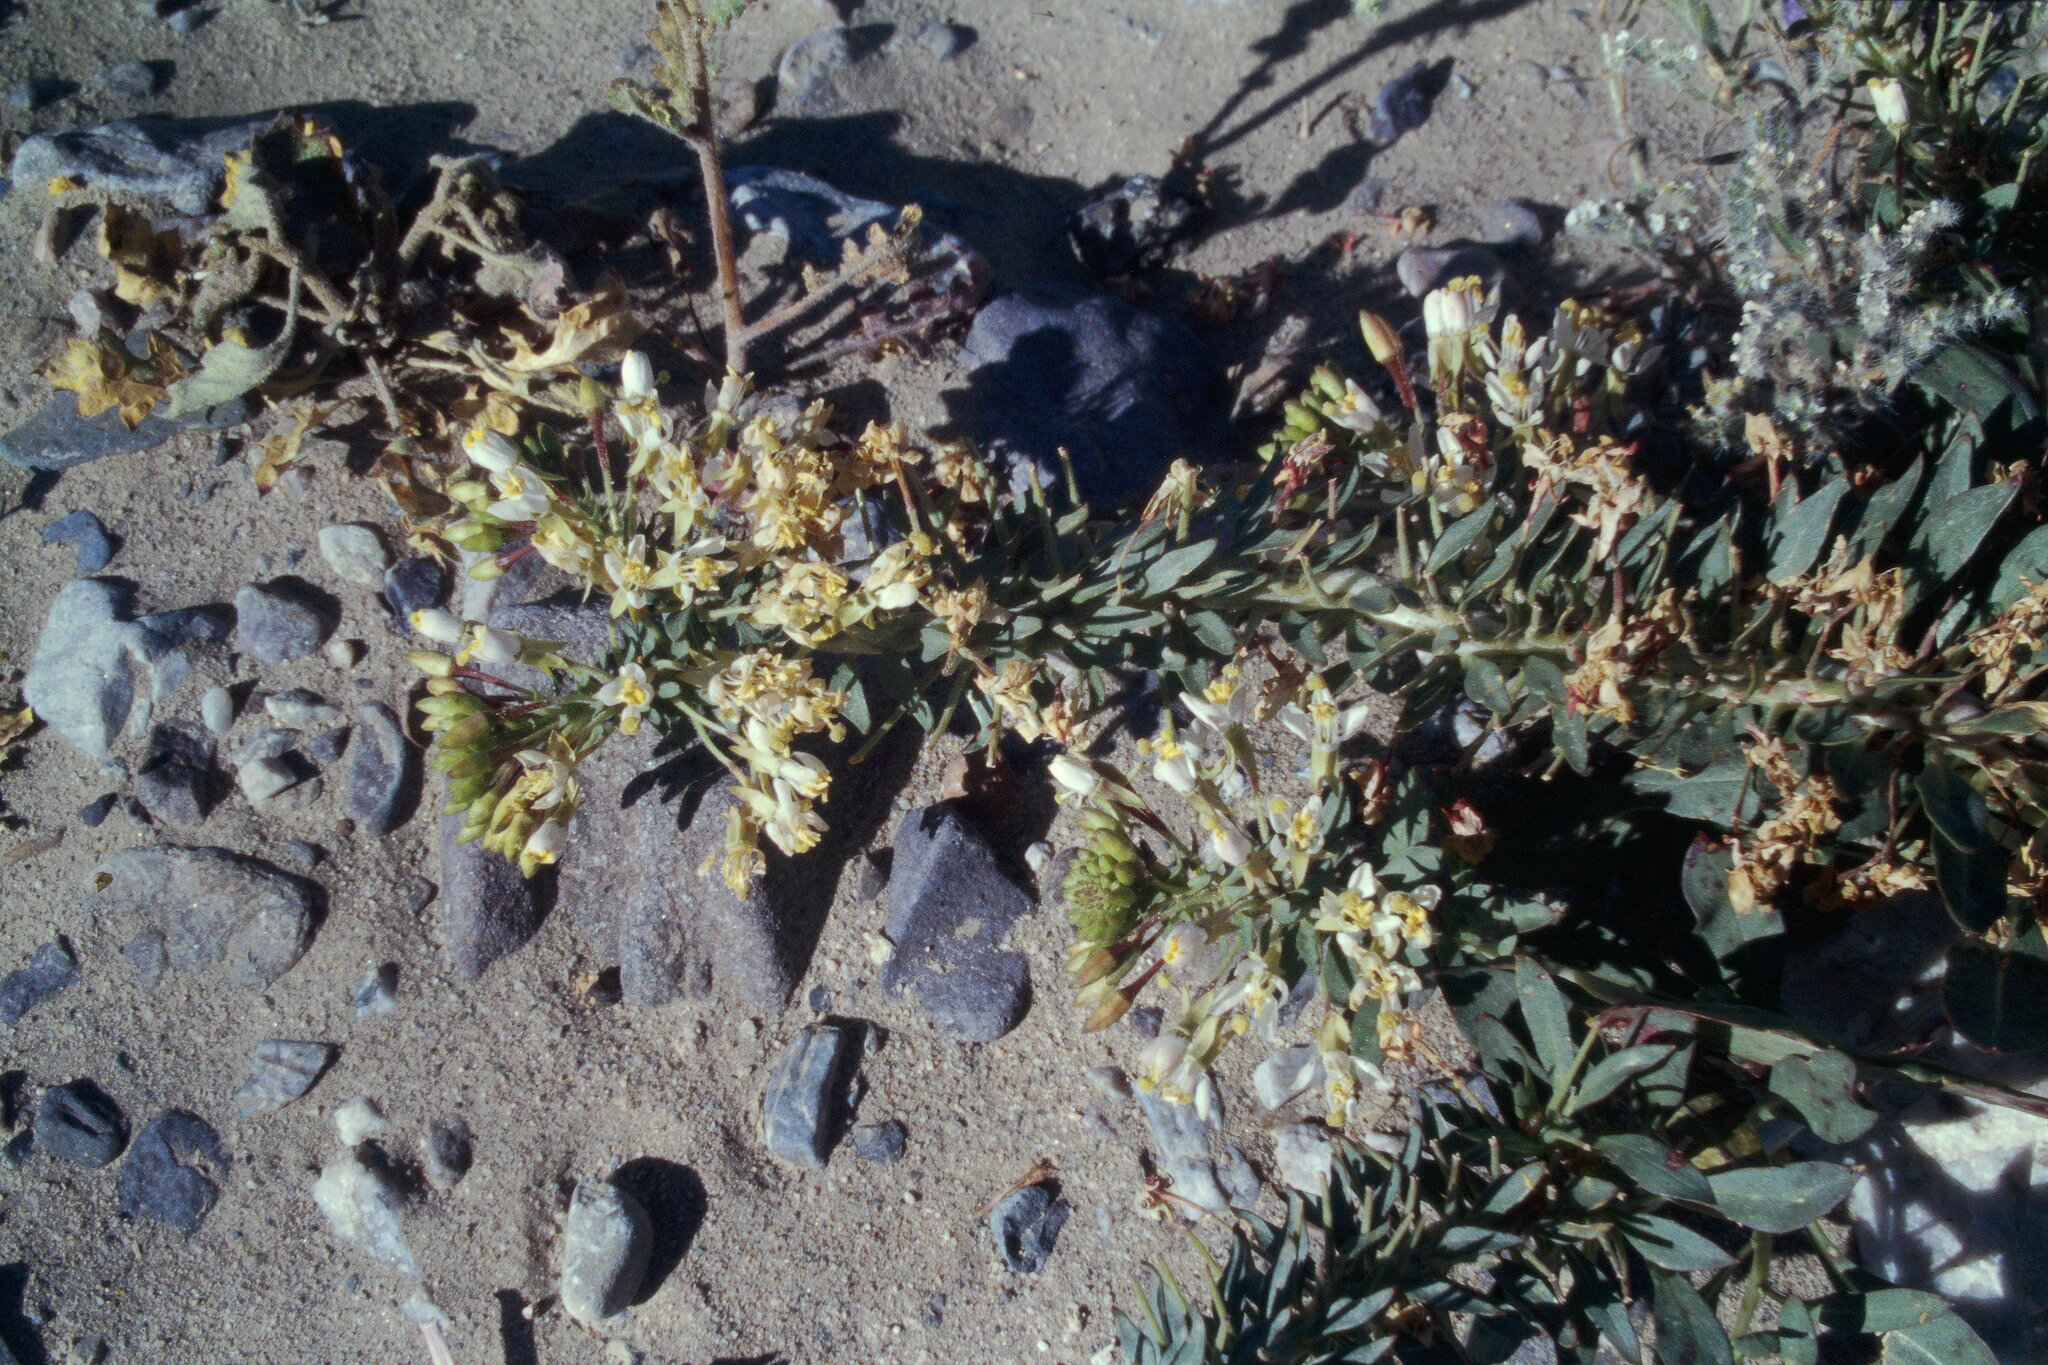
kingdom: Plantae
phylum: Tracheophyta
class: Magnoliopsida
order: Myrtales
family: Onagraceae
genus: Eremothera
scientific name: Eremothera boothii
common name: Booth's evening primrose
